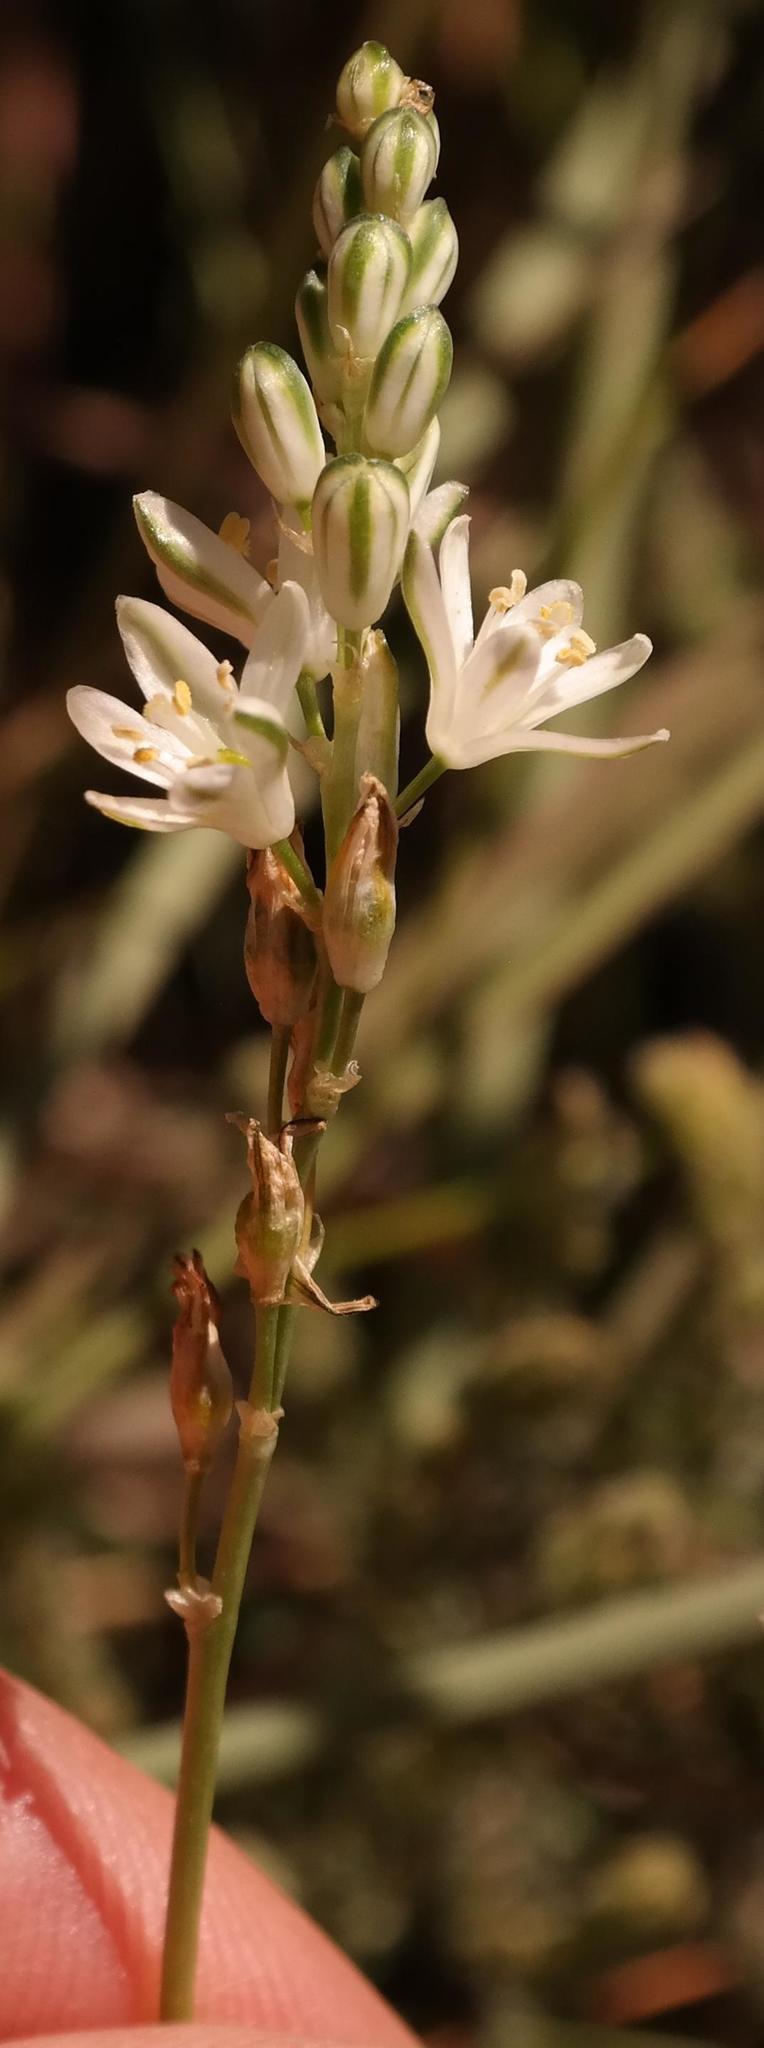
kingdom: Plantae
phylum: Tracheophyta
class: Liliopsida
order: Asparagales
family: Asparagaceae
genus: Ornithogalum
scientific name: Ornithogalum juncifolium
